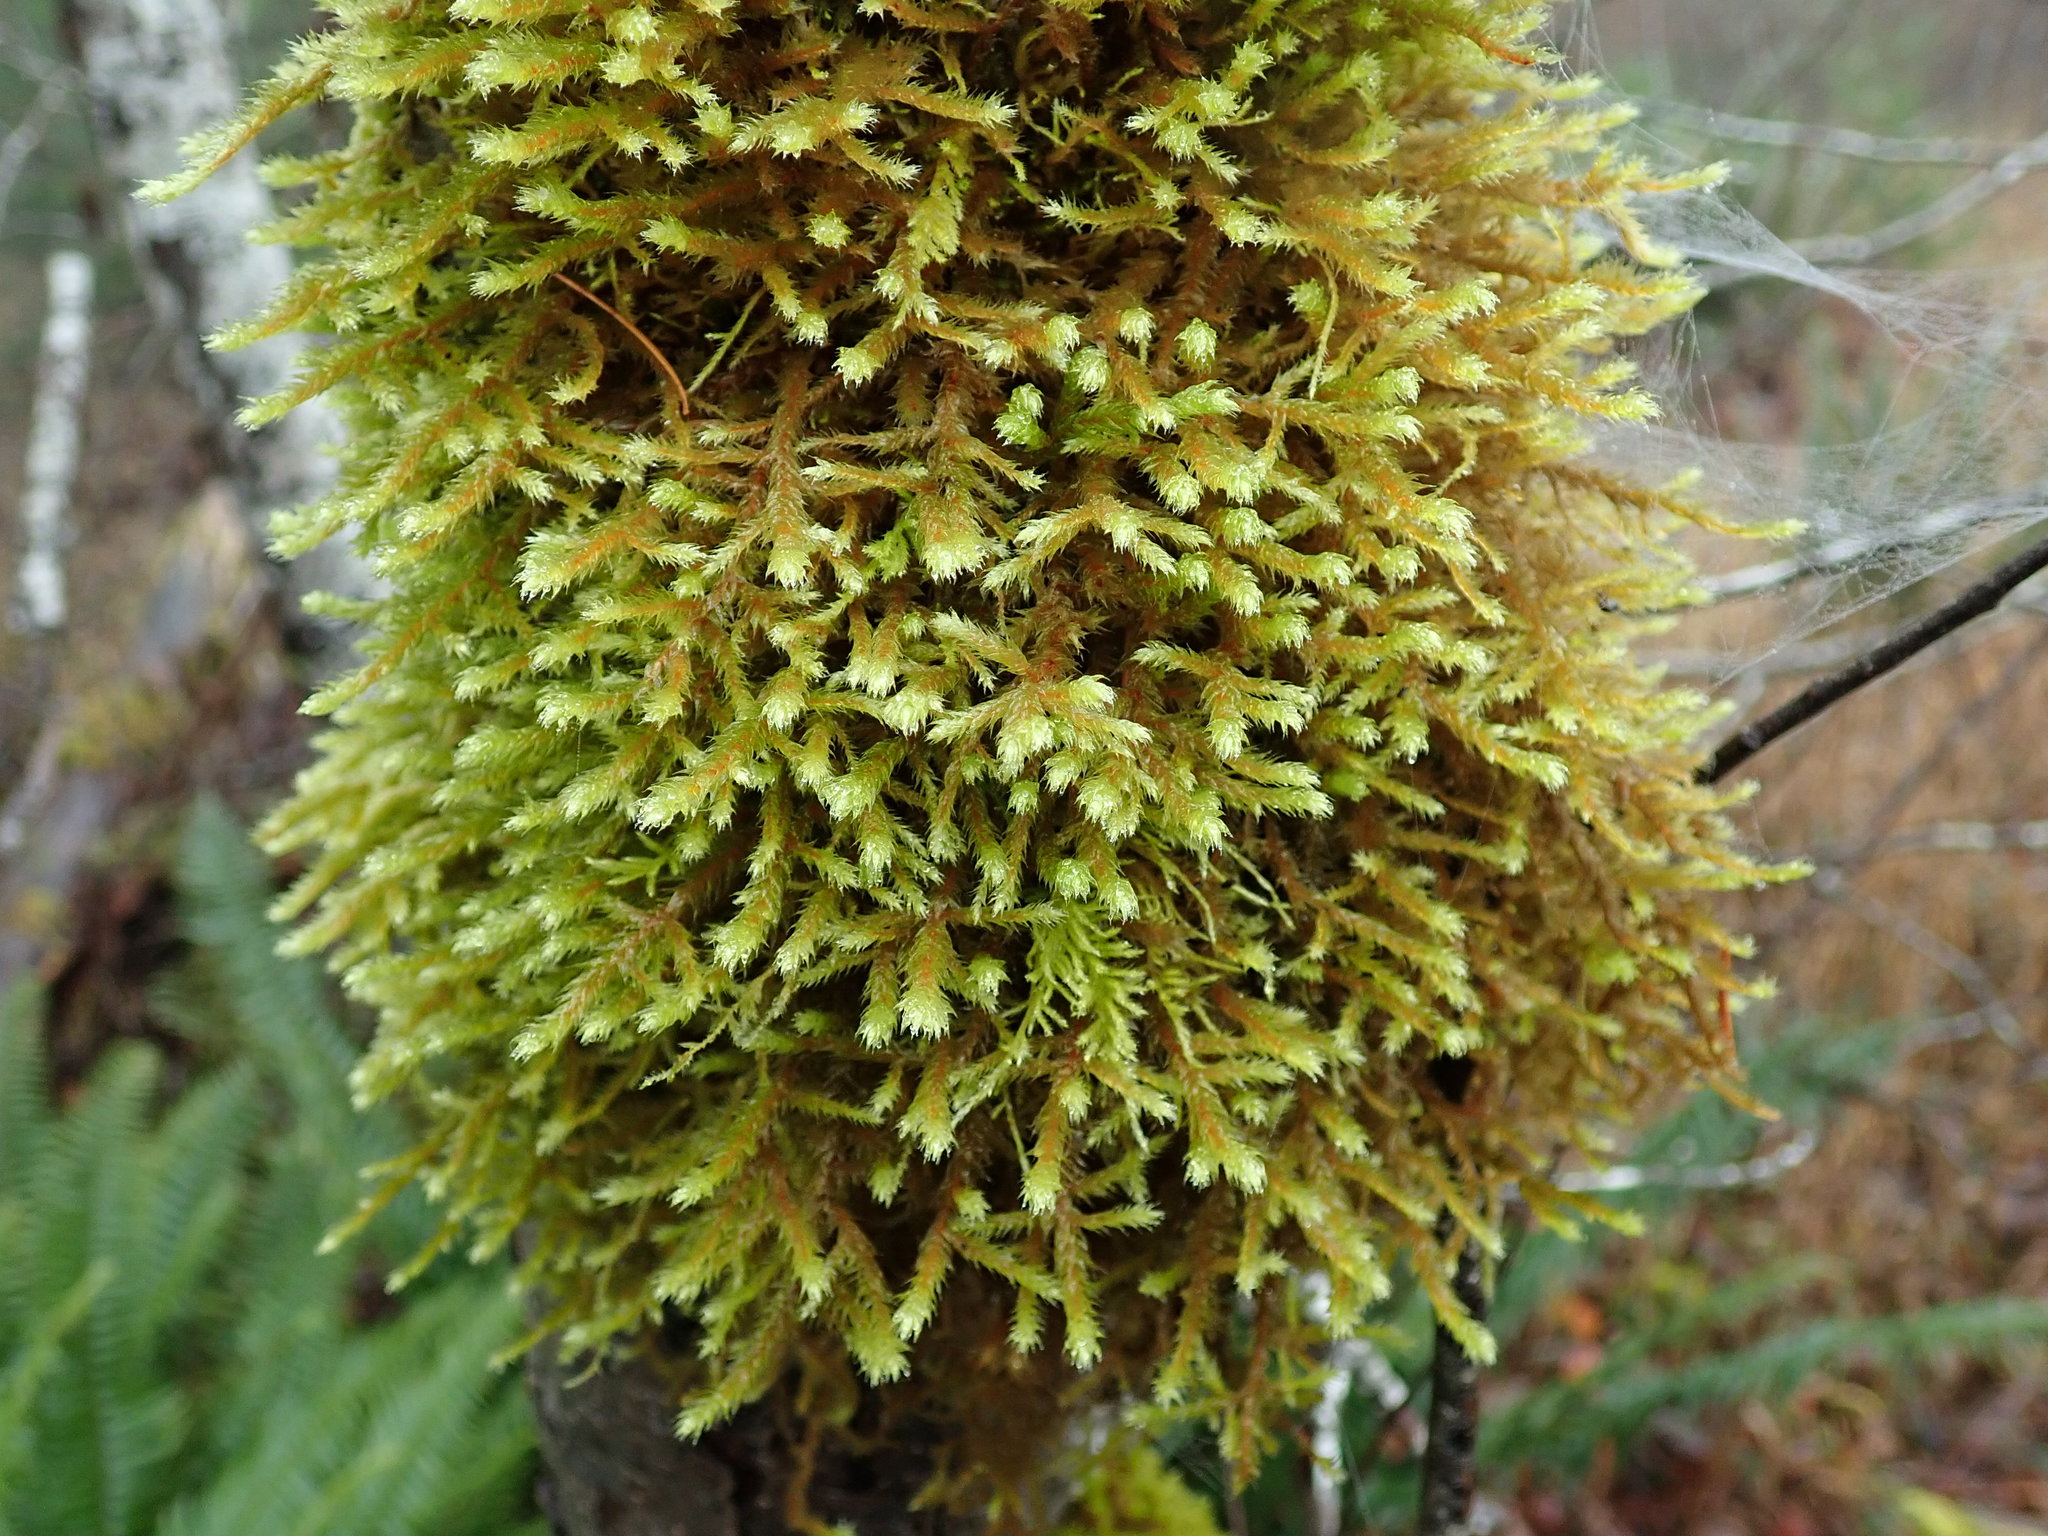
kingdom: Plantae
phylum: Bryophyta
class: Bryopsida
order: Hypnales
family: Antitrichiaceae
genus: Antitrichia
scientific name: Antitrichia curtipendula
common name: Pendulous wing-moss
